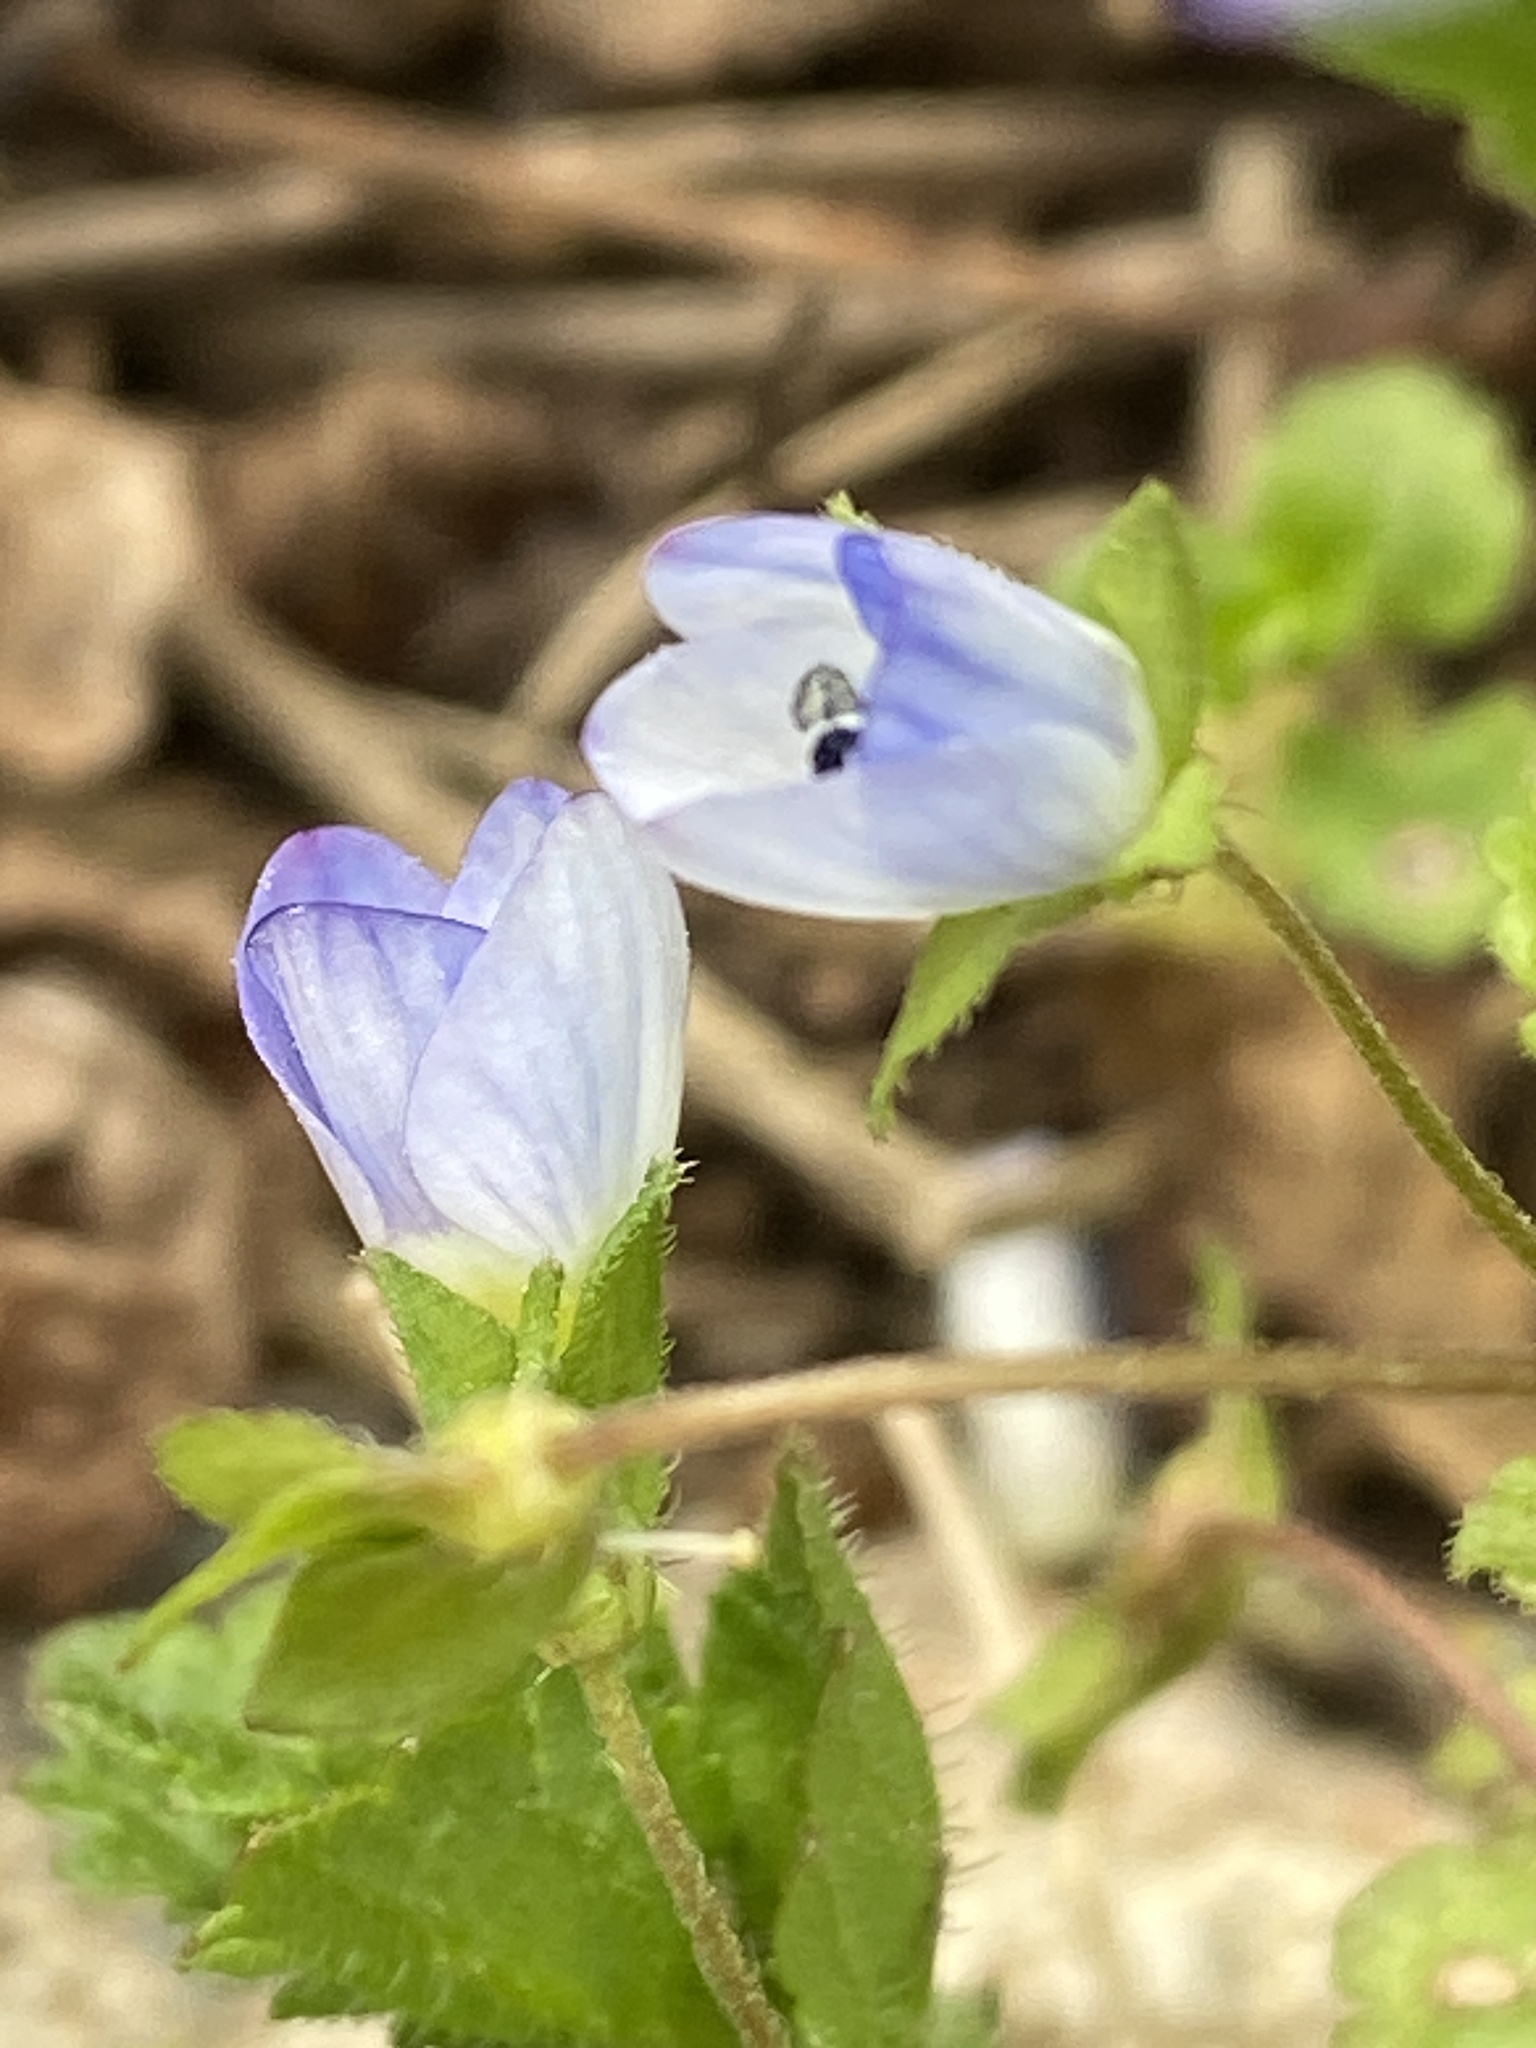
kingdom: Plantae
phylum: Tracheophyta
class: Magnoliopsida
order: Lamiales
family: Plantaginaceae
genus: Veronica
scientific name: Veronica persica
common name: Common field-speedwell
